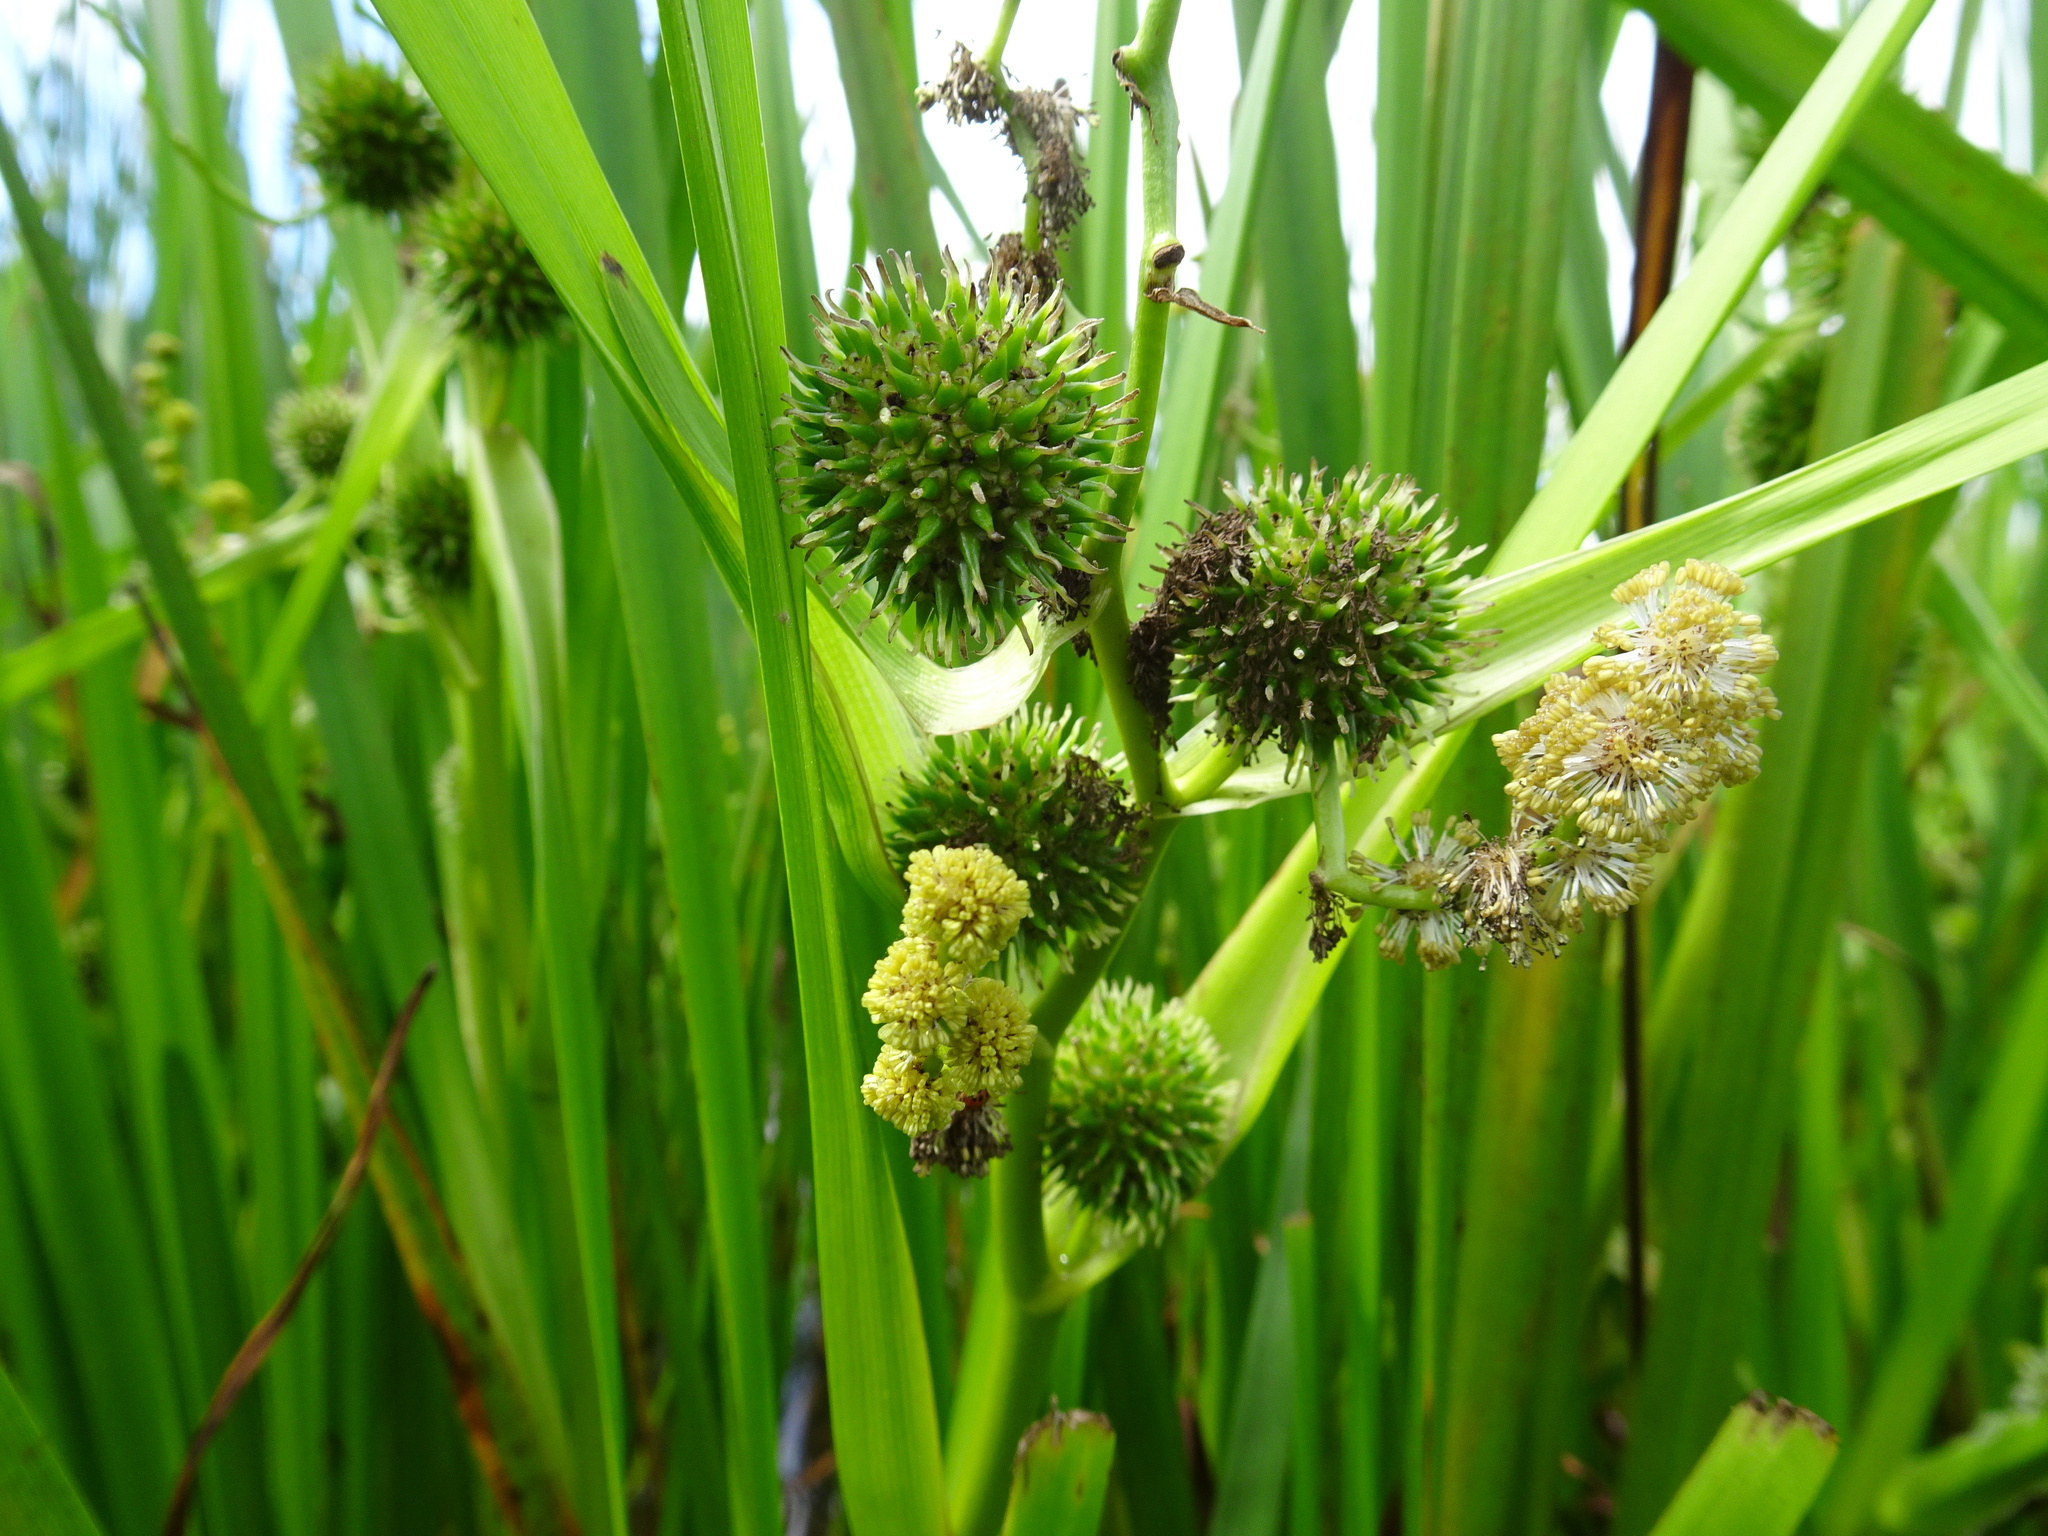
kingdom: Plantae
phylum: Tracheophyta
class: Liliopsida
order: Poales
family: Typhaceae
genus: Sparganium
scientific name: Sparganium erectum
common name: Branched bur-reed
